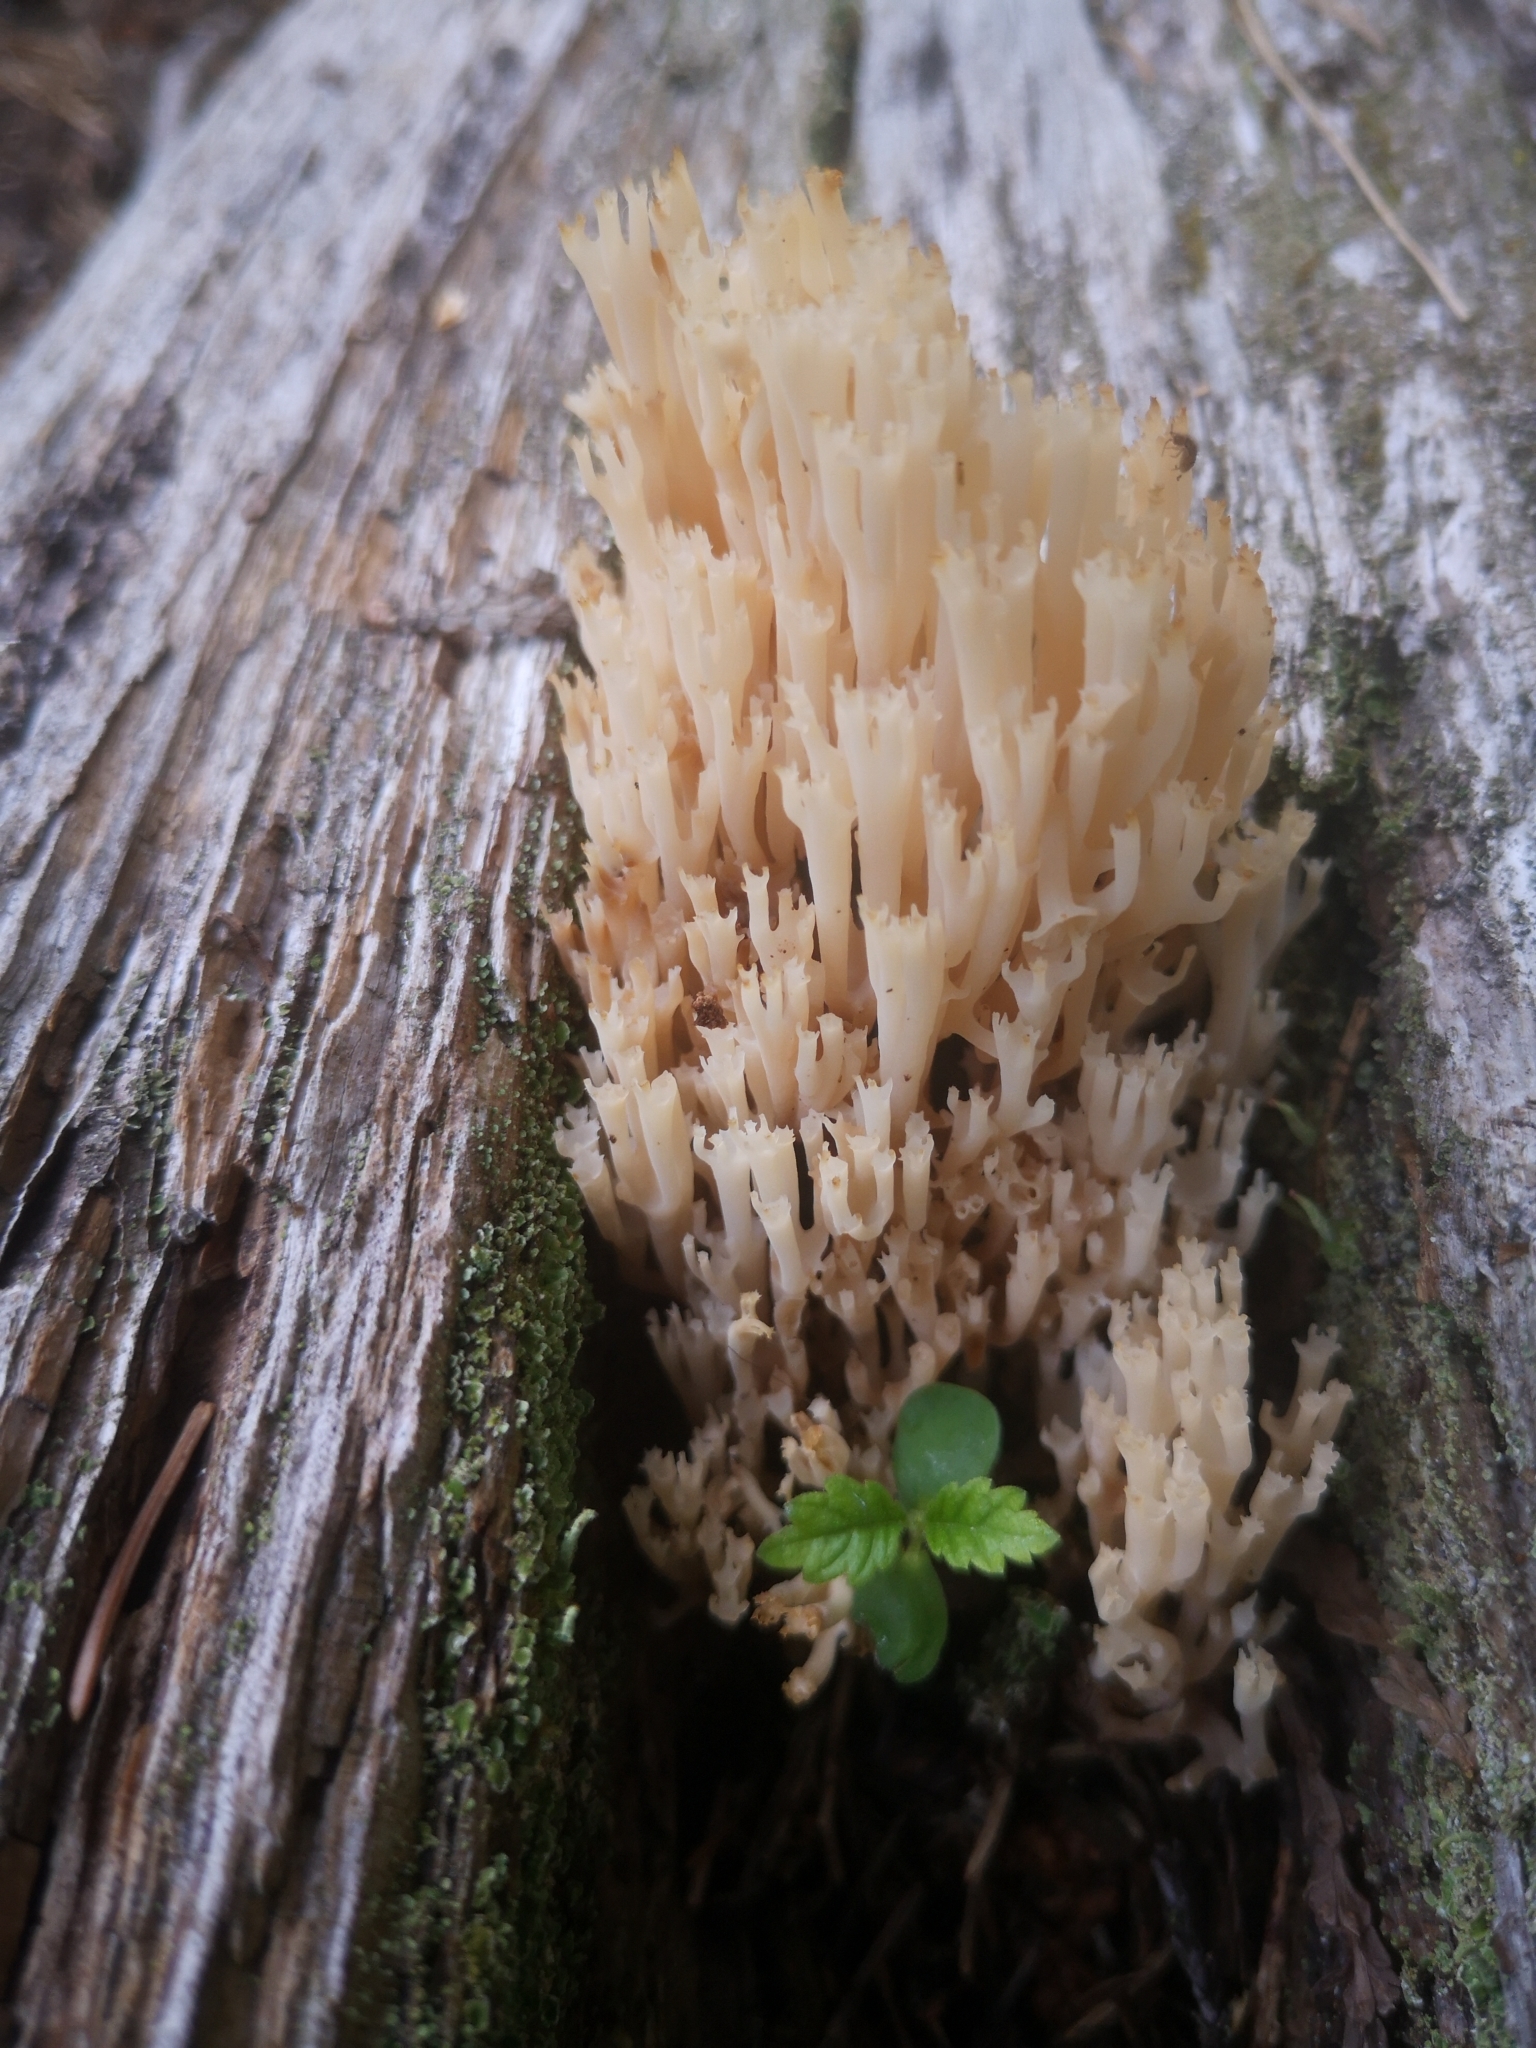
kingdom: Fungi
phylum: Basidiomycota
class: Agaricomycetes
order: Russulales
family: Auriscalpiaceae
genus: Artomyces
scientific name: Artomyces pyxidatus
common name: Crown-tipped coral fungus
